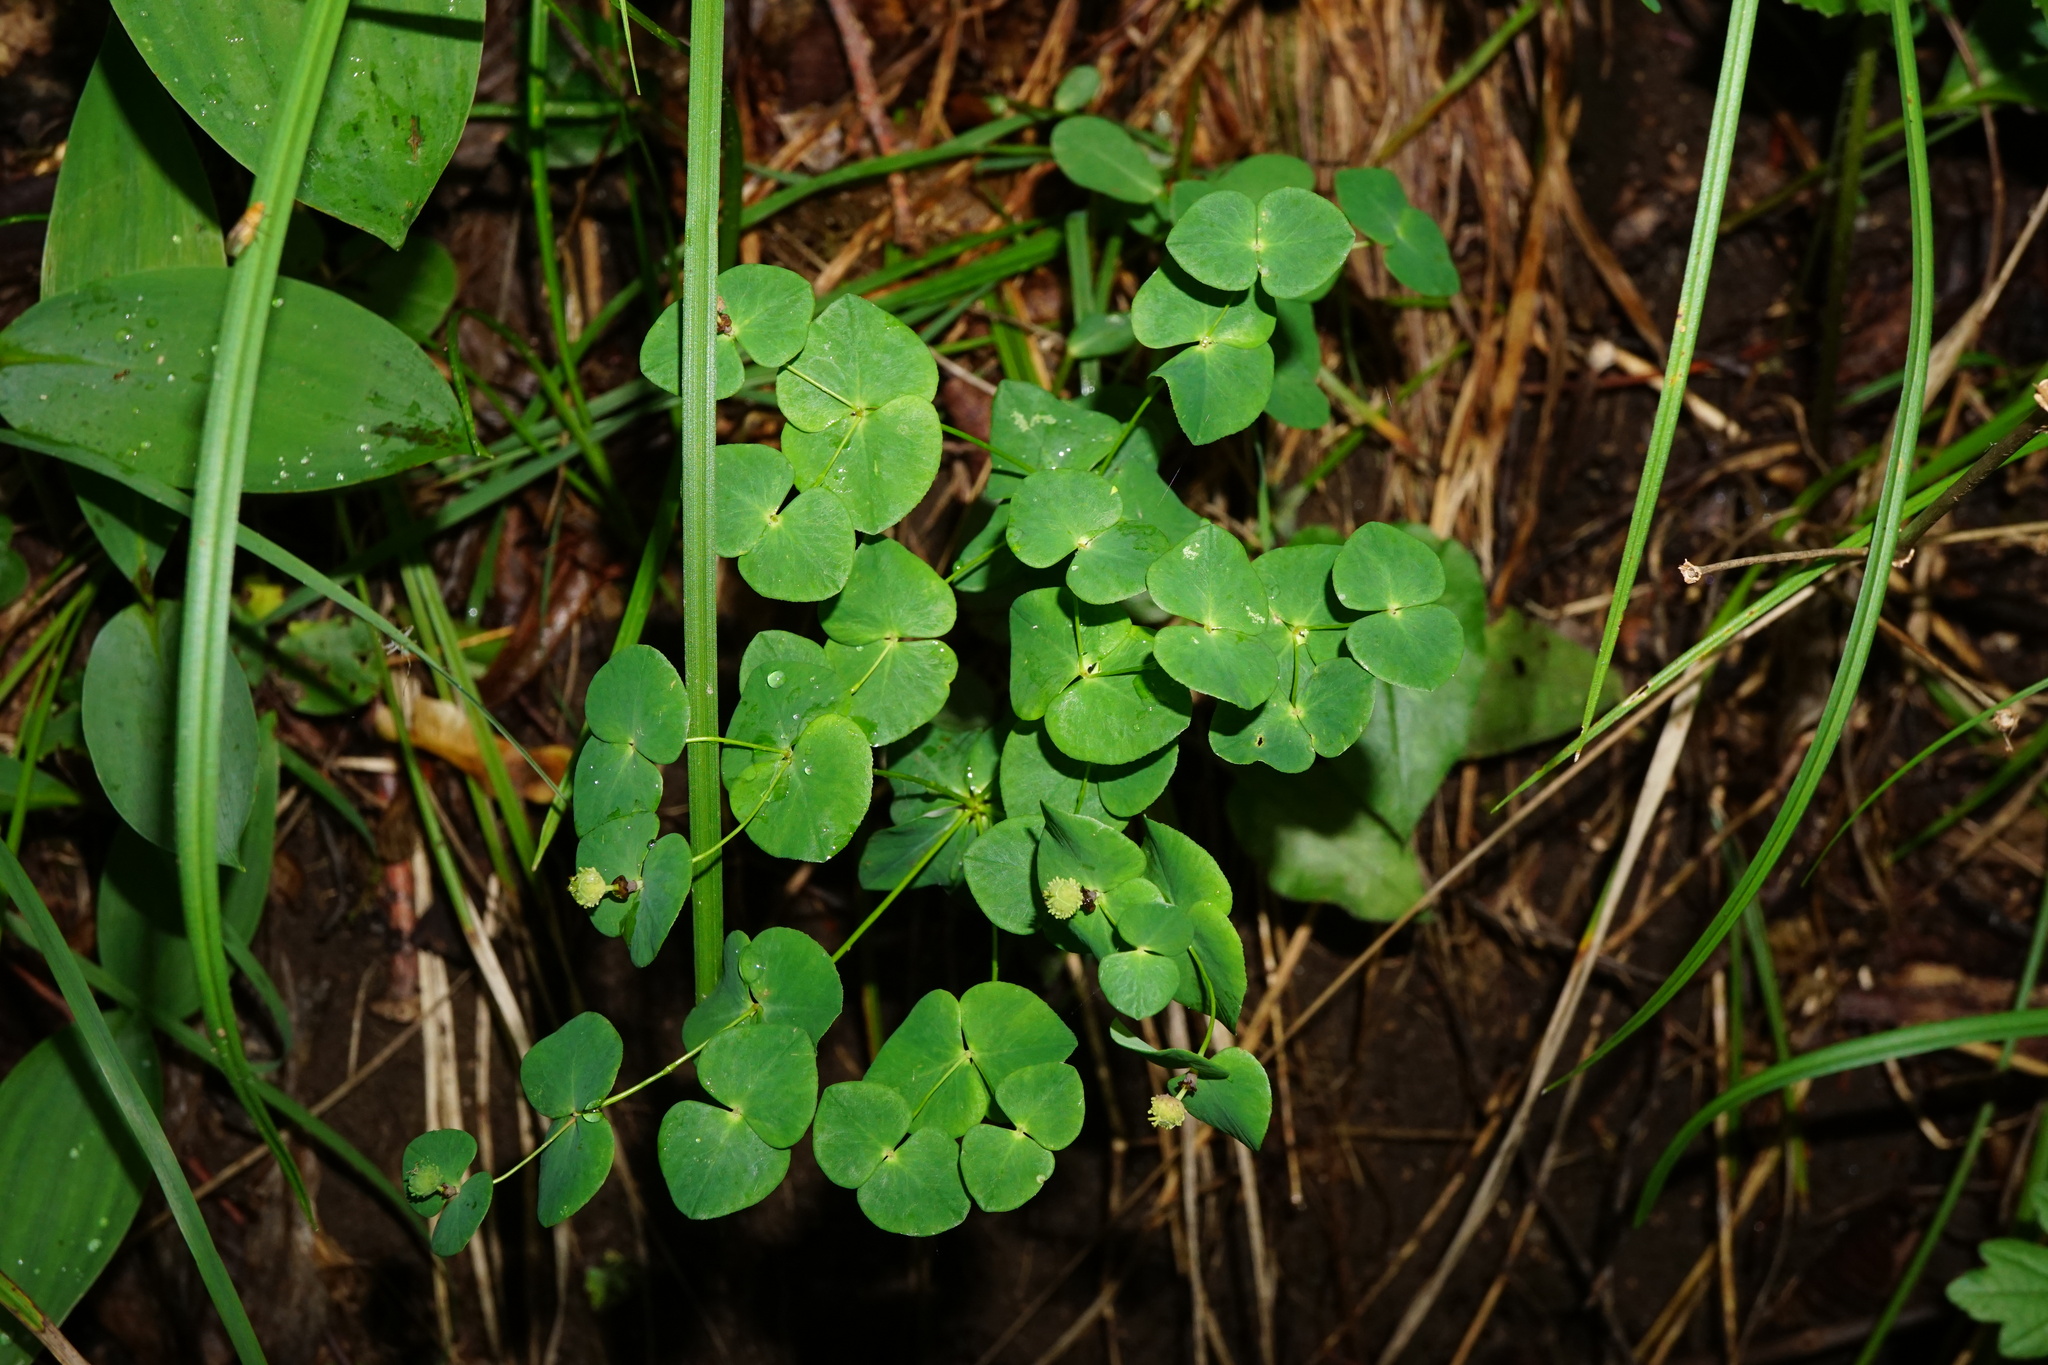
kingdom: Plantae
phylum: Tracheophyta
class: Magnoliopsida
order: Malpighiales
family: Euphorbiaceae
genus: Euphorbia
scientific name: Euphorbia dulcis
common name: Sweet spurge
